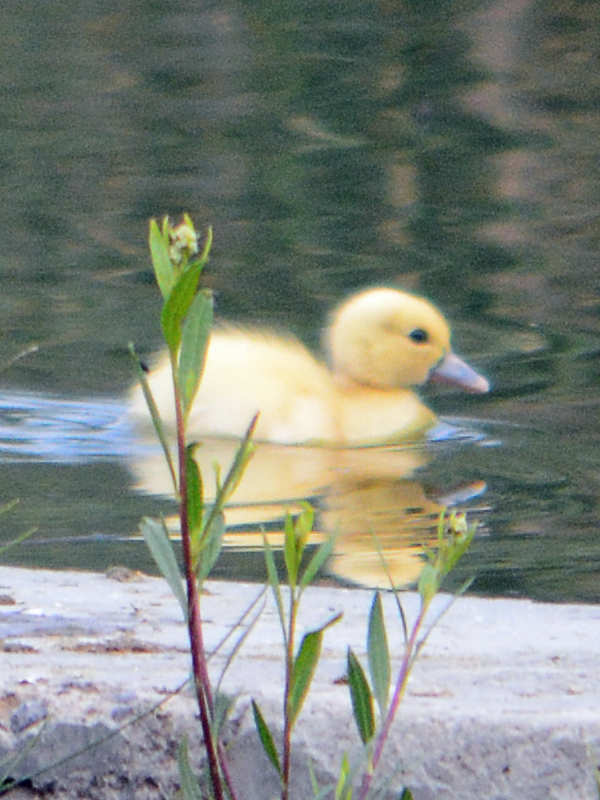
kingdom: Animalia
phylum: Chordata
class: Aves
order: Anseriformes
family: Anatidae
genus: Anas
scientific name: Anas platyrhynchos
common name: Mallard
